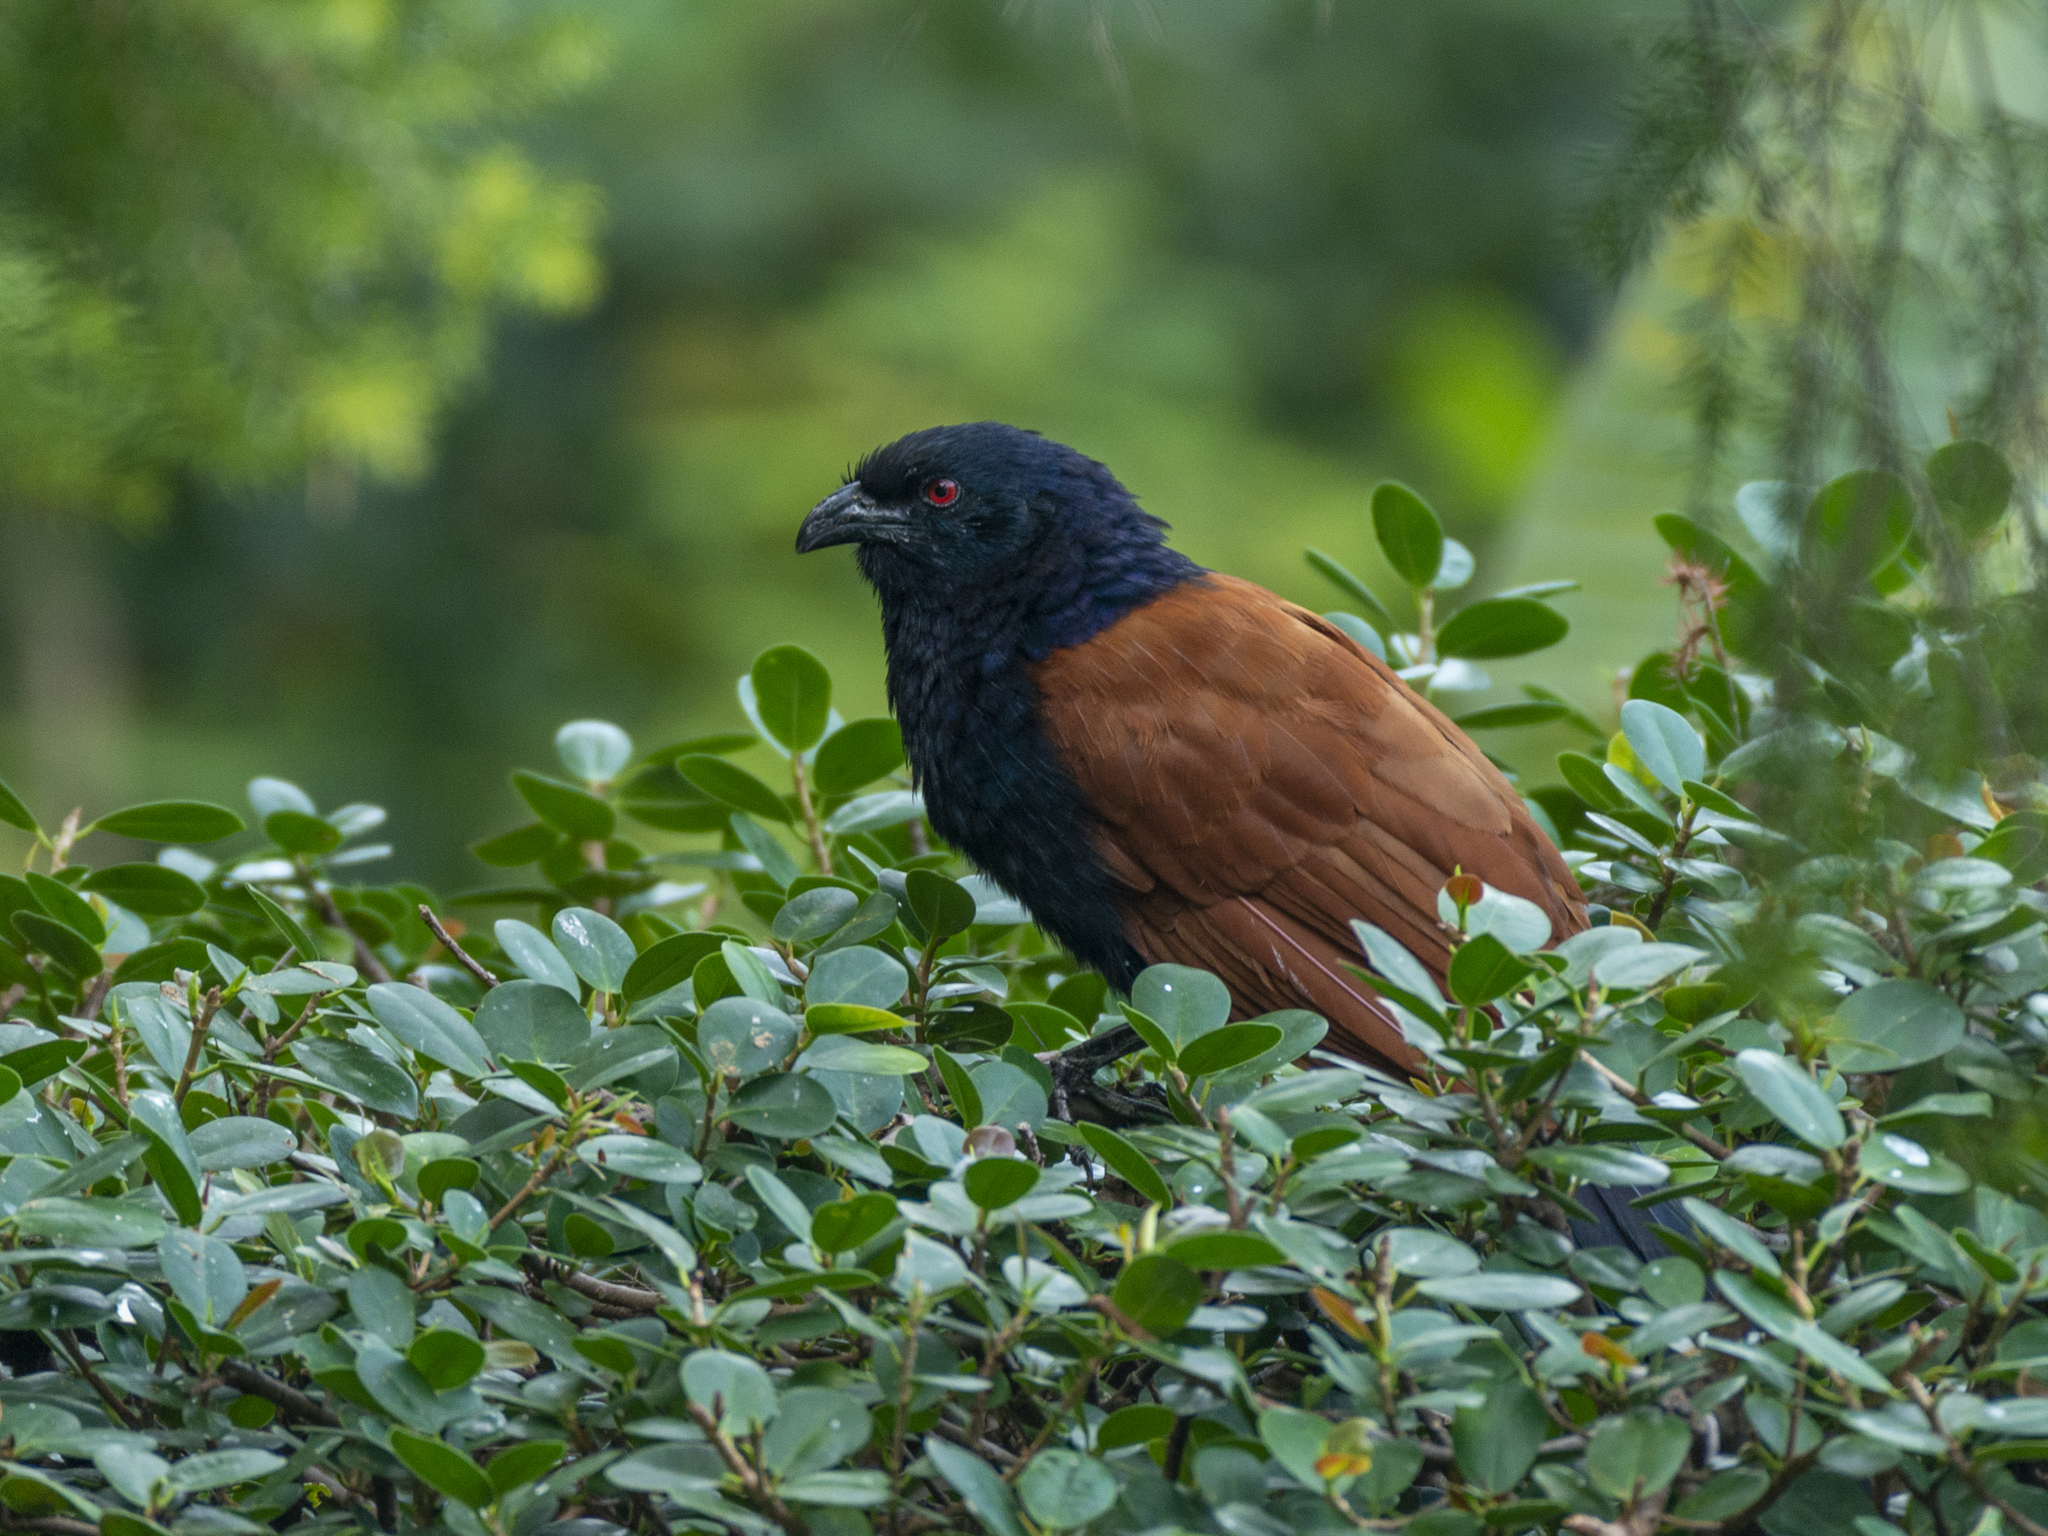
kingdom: Animalia
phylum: Chordata
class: Aves
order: Cuculiformes
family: Cuculidae
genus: Centropus
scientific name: Centropus sinensis
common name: Greater coucal
